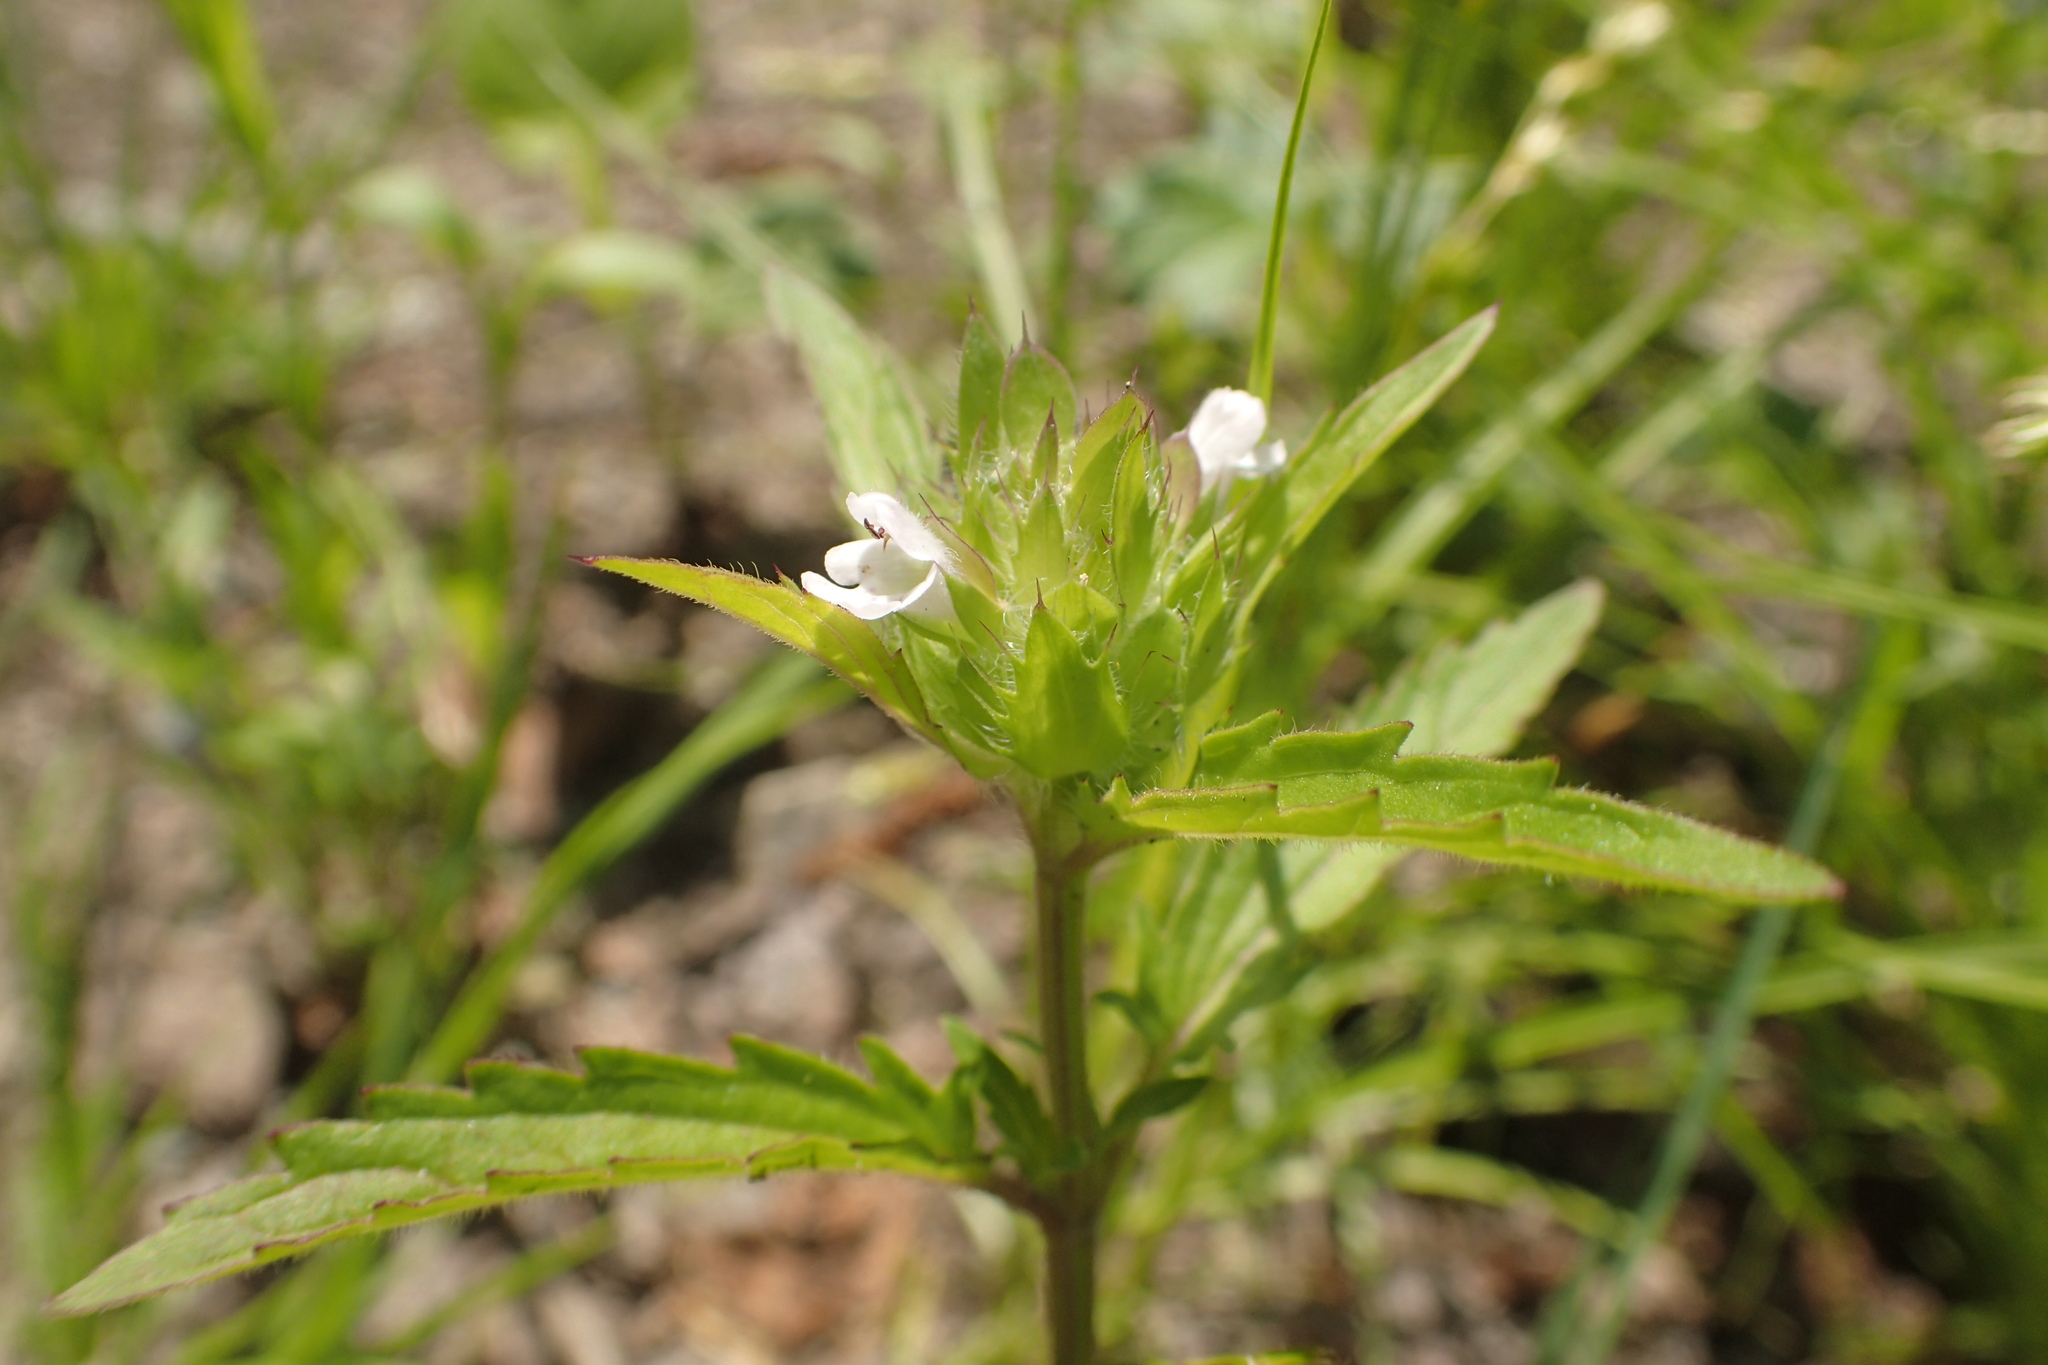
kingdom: Plantae
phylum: Tracheophyta
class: Magnoliopsida
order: Lamiales
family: Lamiaceae
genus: Dracocephalum
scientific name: Dracocephalum parviflorum
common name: American dragonhead
